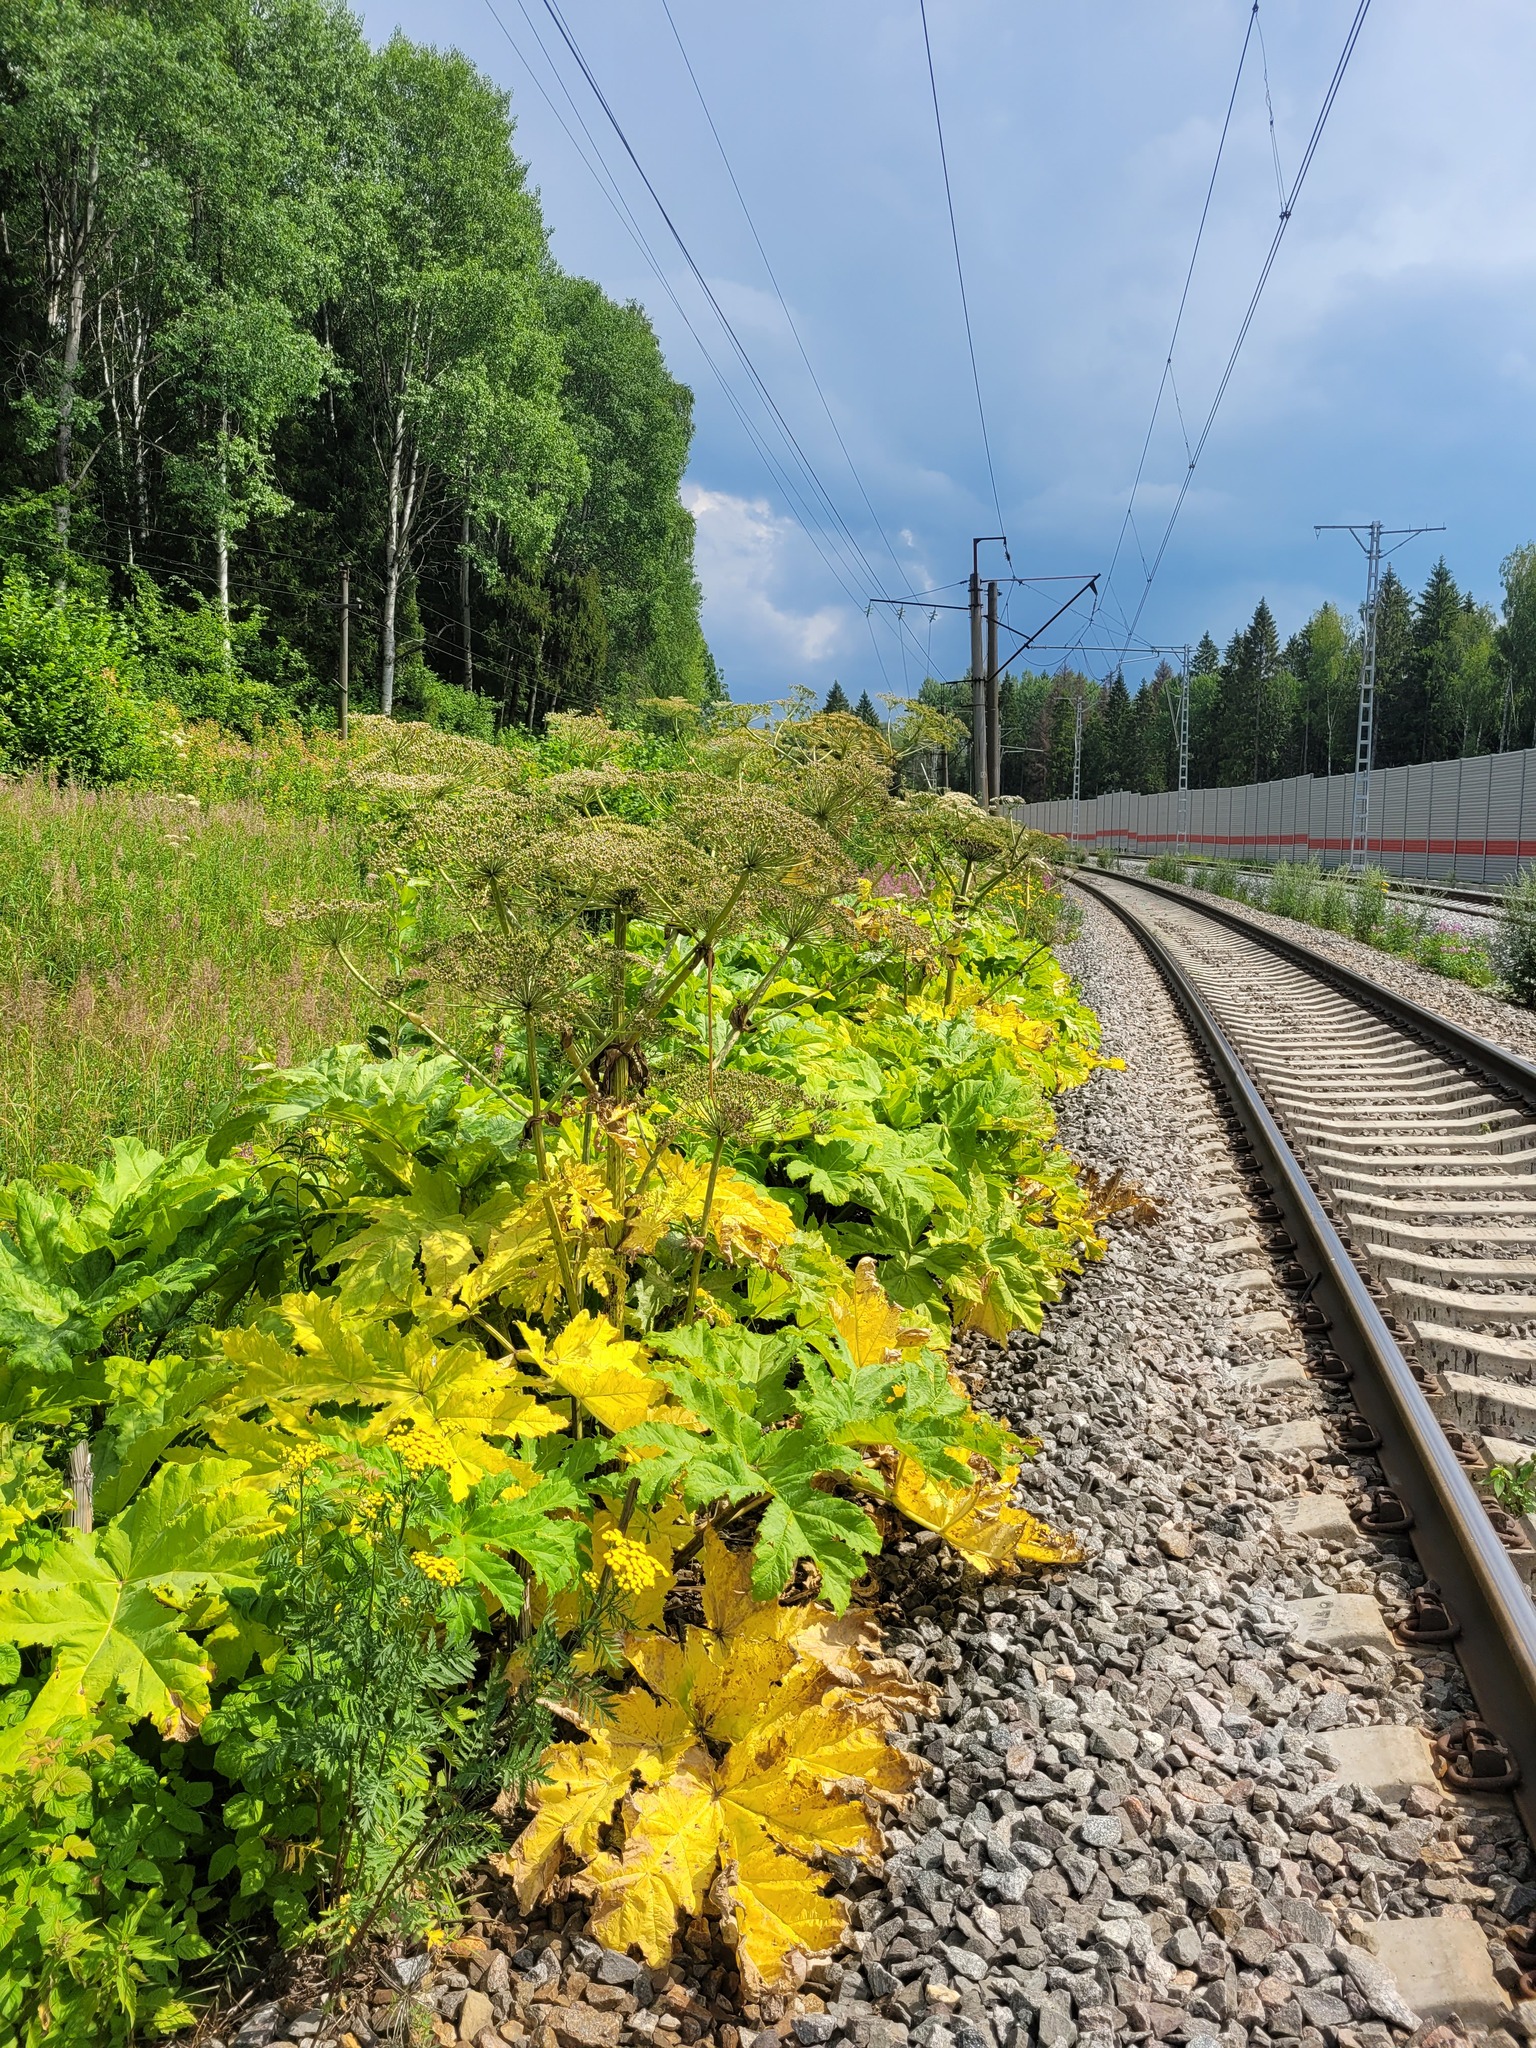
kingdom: Plantae
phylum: Tracheophyta
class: Magnoliopsida
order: Apiales
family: Apiaceae
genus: Heracleum
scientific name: Heracleum sosnowskyi
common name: Sosnowsky's hogweed
